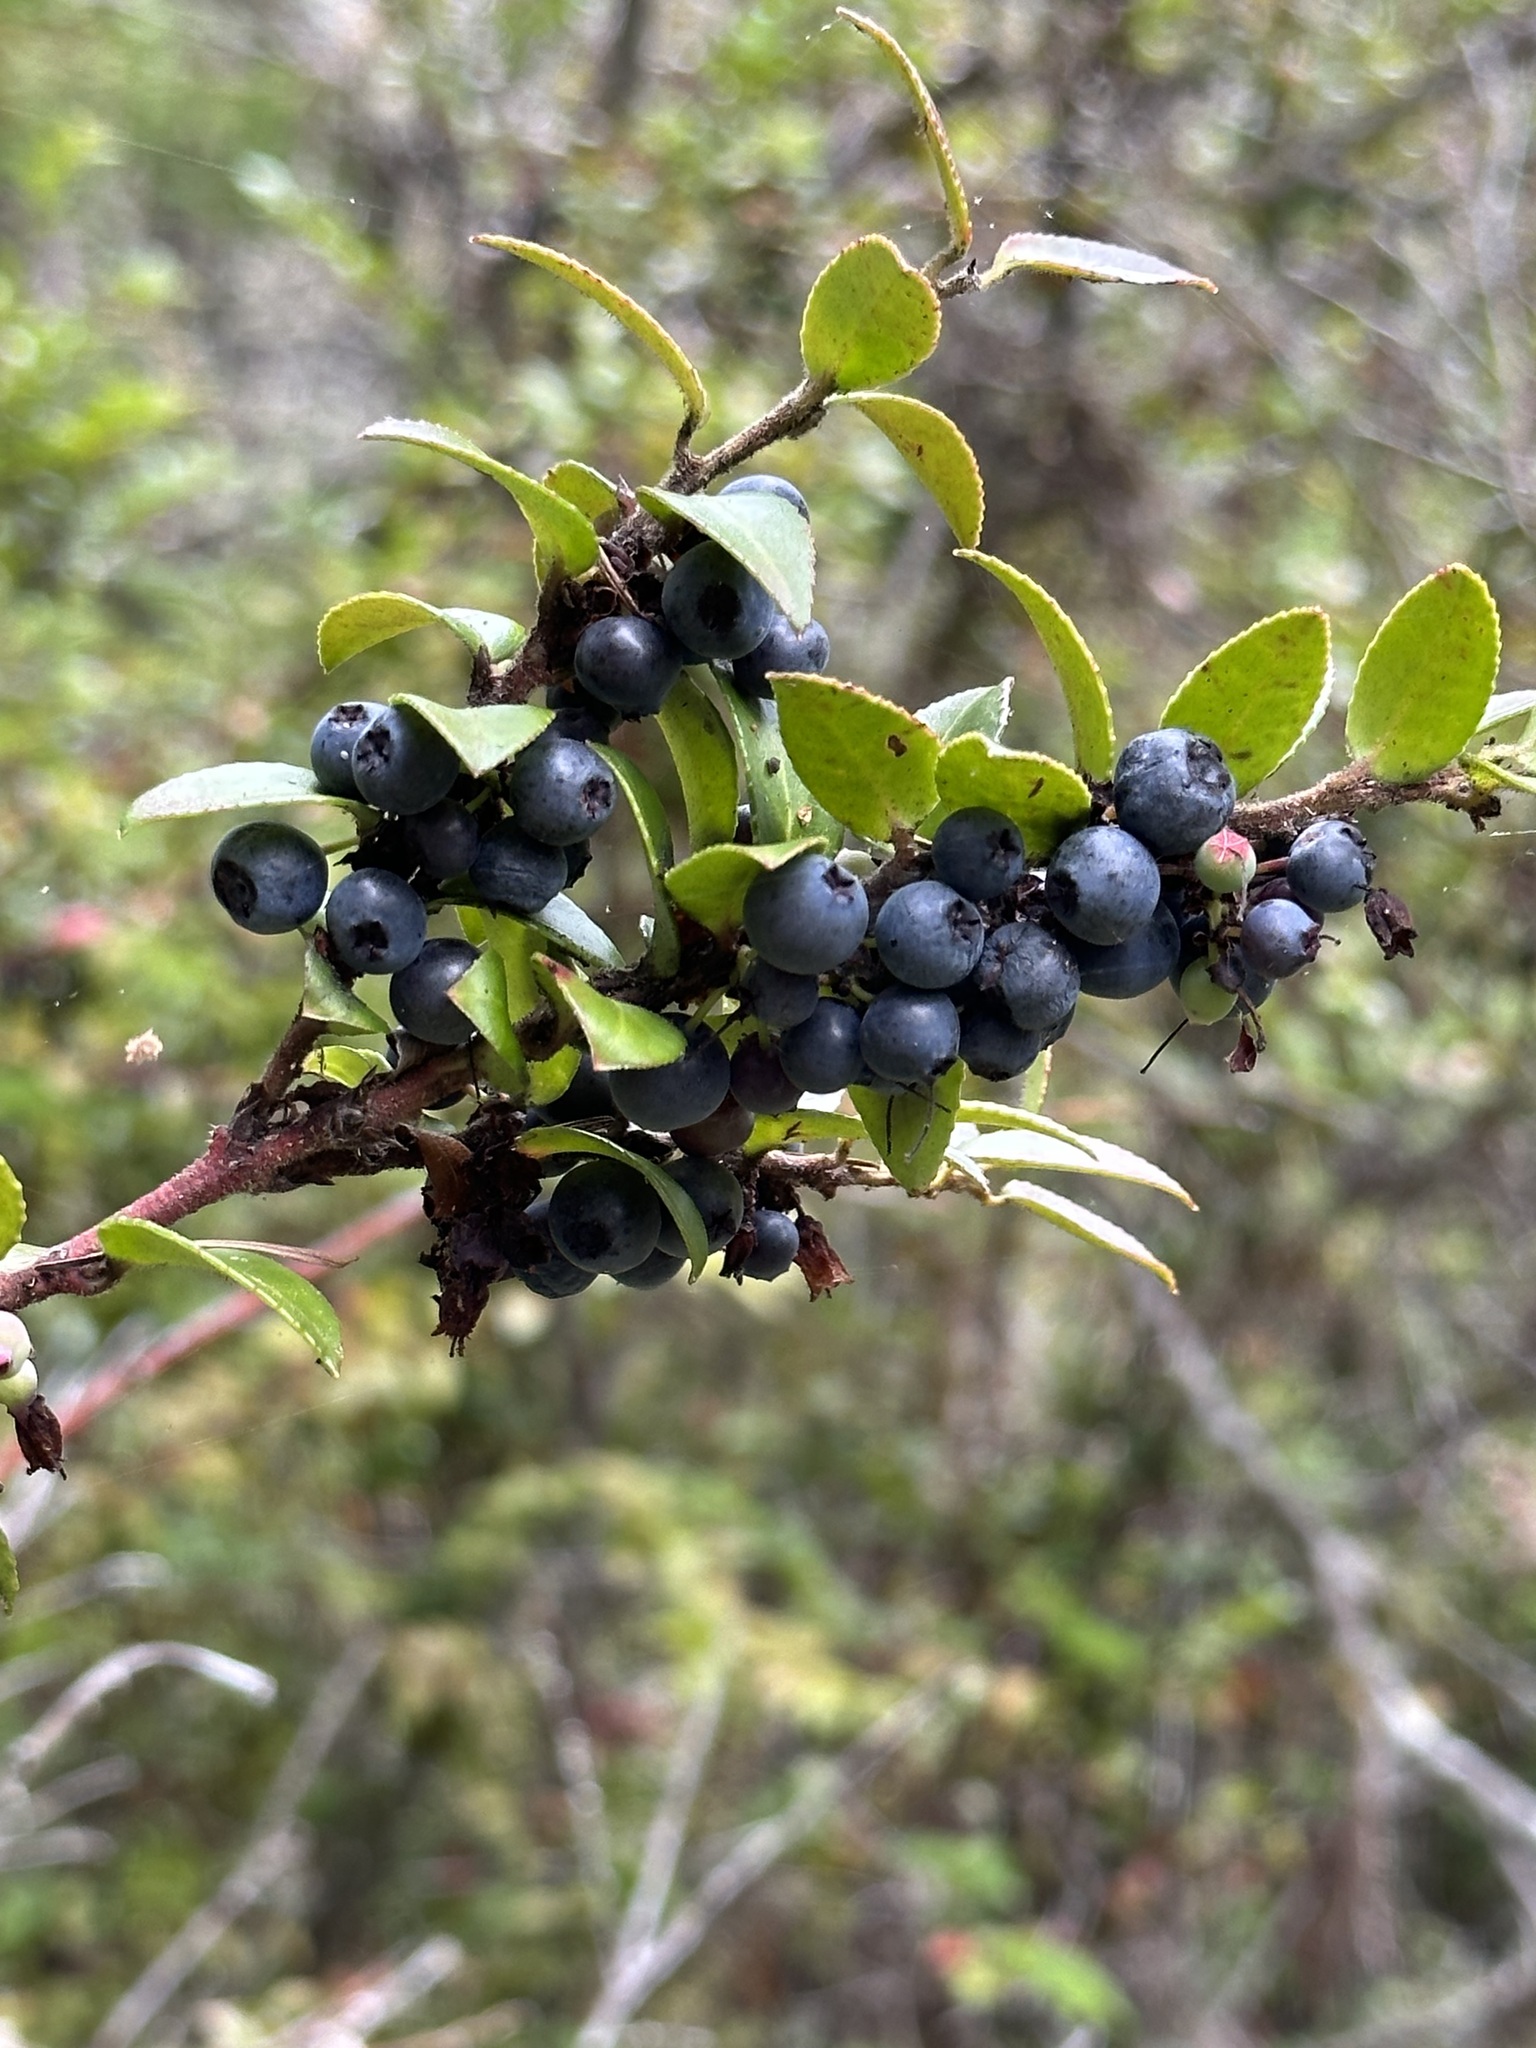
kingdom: Plantae
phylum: Tracheophyta
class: Magnoliopsida
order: Ericales
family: Ericaceae
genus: Vaccinium
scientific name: Vaccinium ovatum
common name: California-huckleberry
